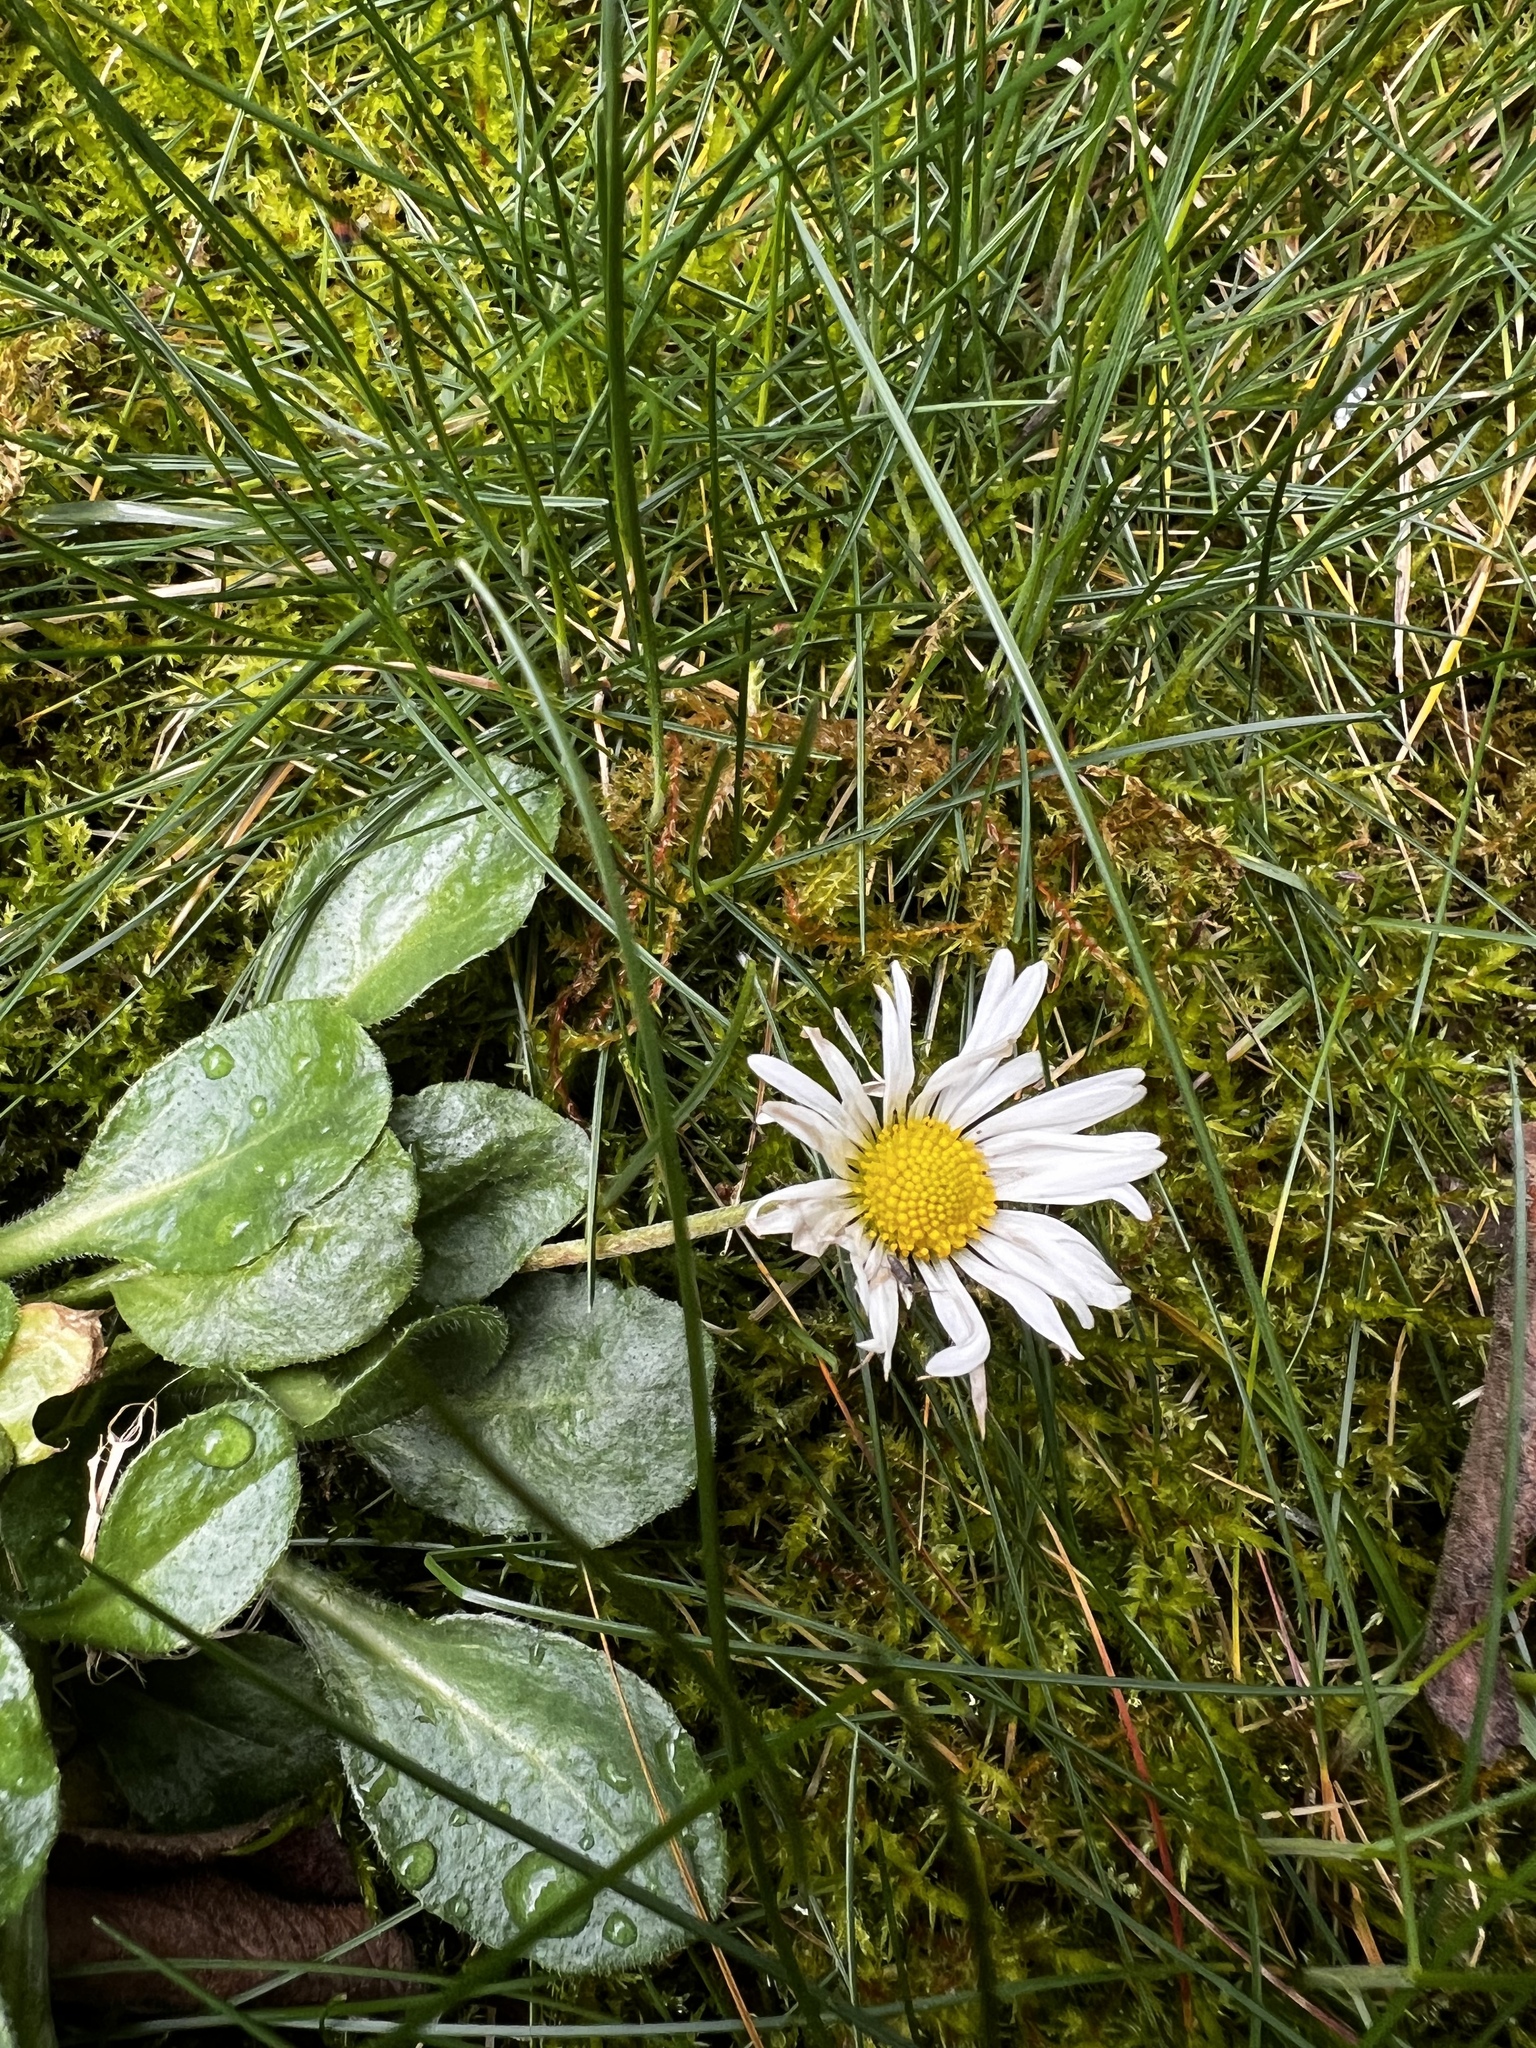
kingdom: Plantae
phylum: Tracheophyta
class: Magnoliopsida
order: Asterales
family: Asteraceae
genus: Bellis
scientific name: Bellis perennis
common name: Lawndaisy
